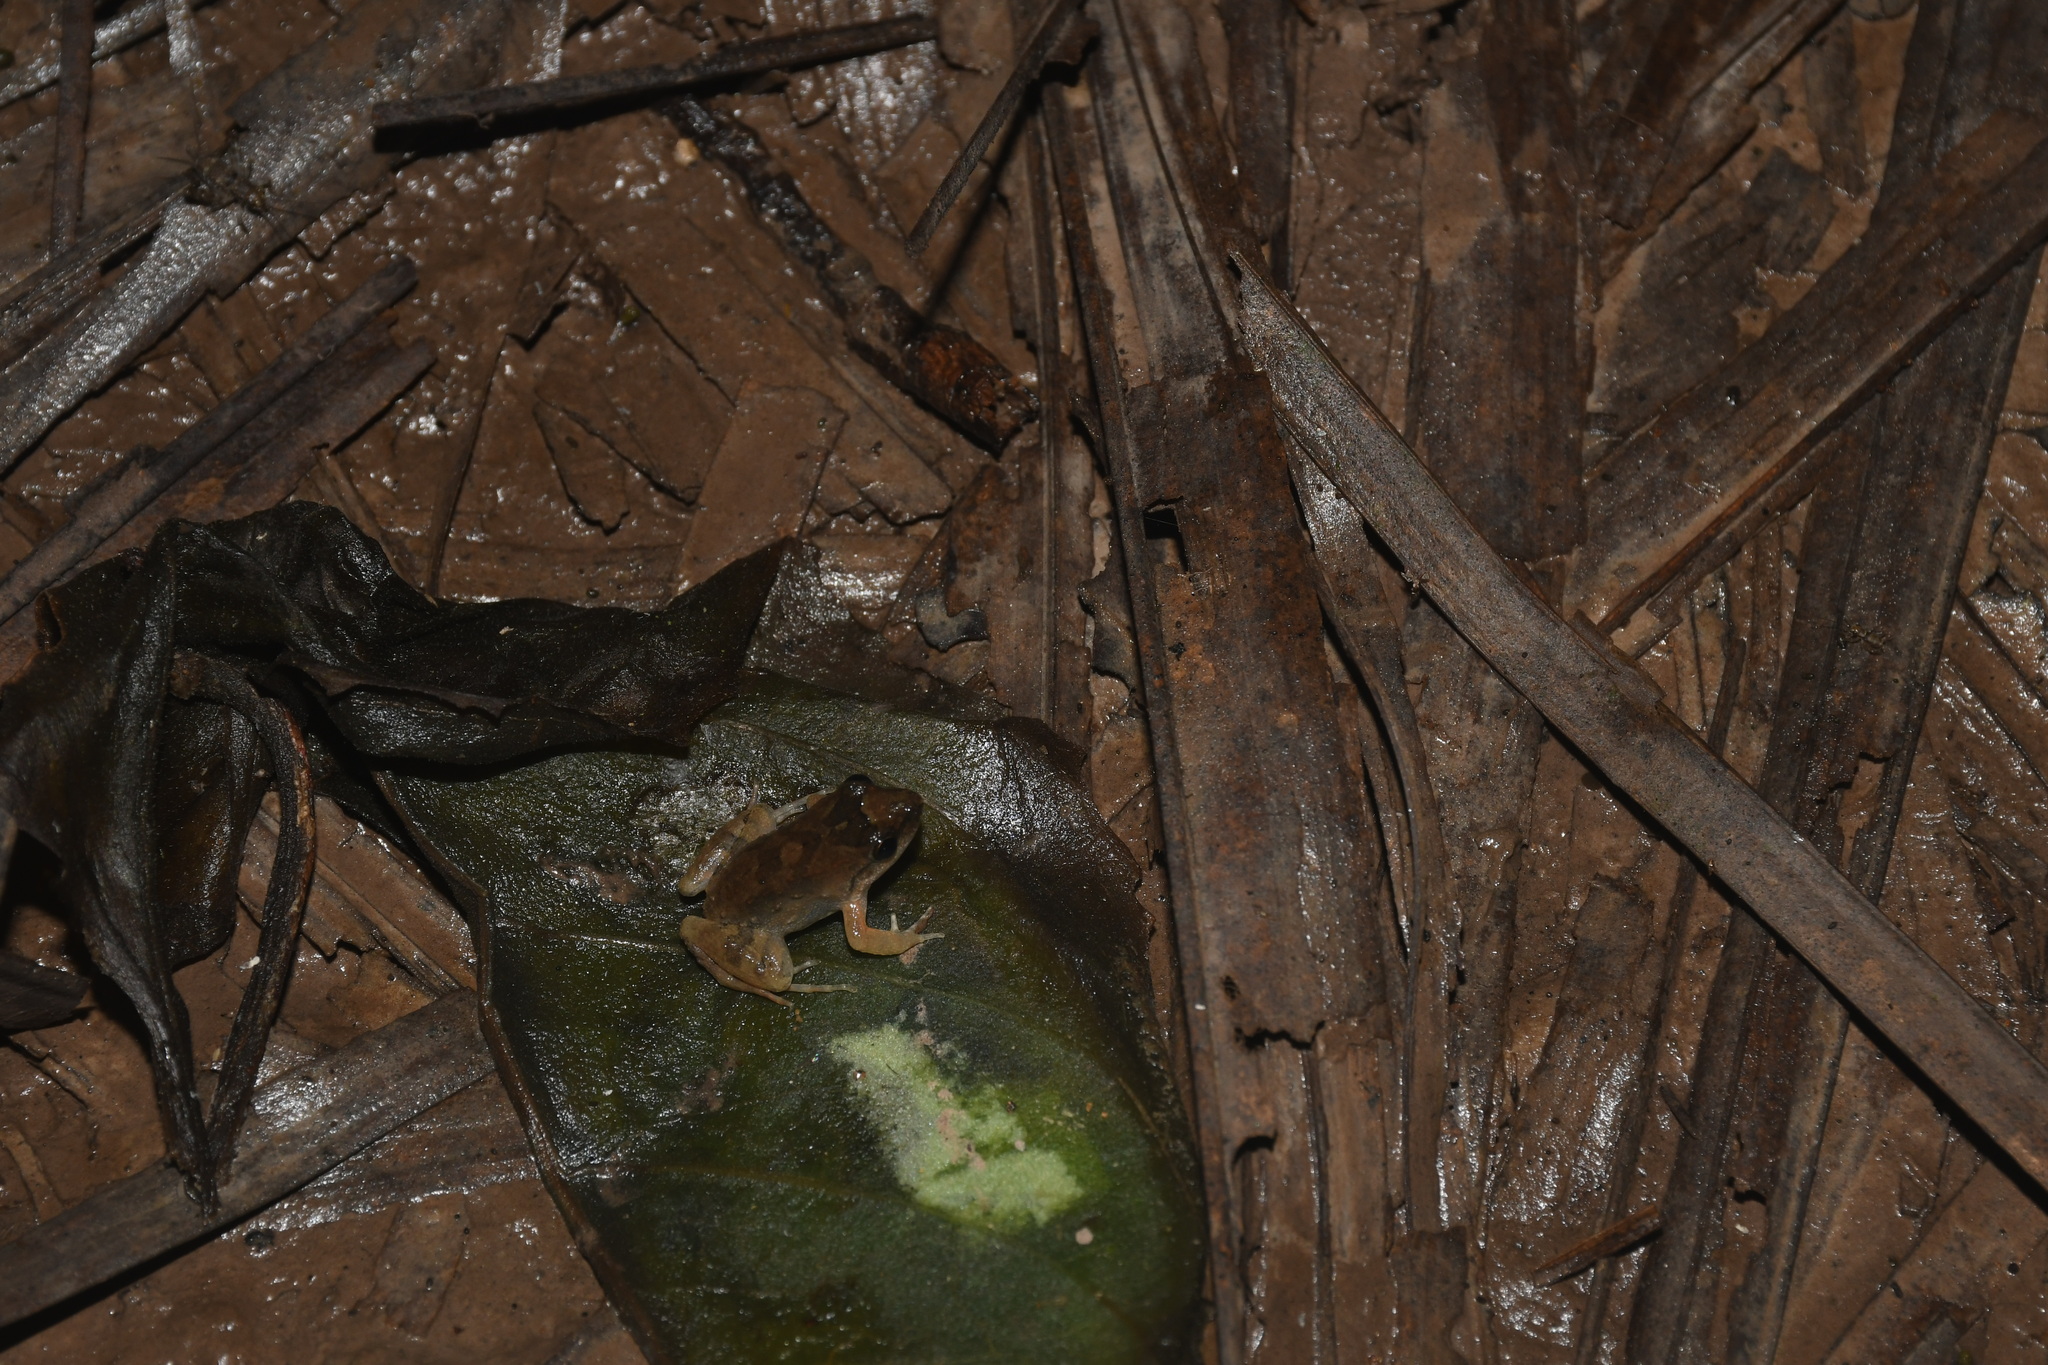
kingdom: Animalia
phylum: Chordata
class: Amphibia
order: Anura
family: Leptodactylidae
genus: Leptodactylus
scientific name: Leptodactylus petersii
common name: Peters' thin-toed frog
